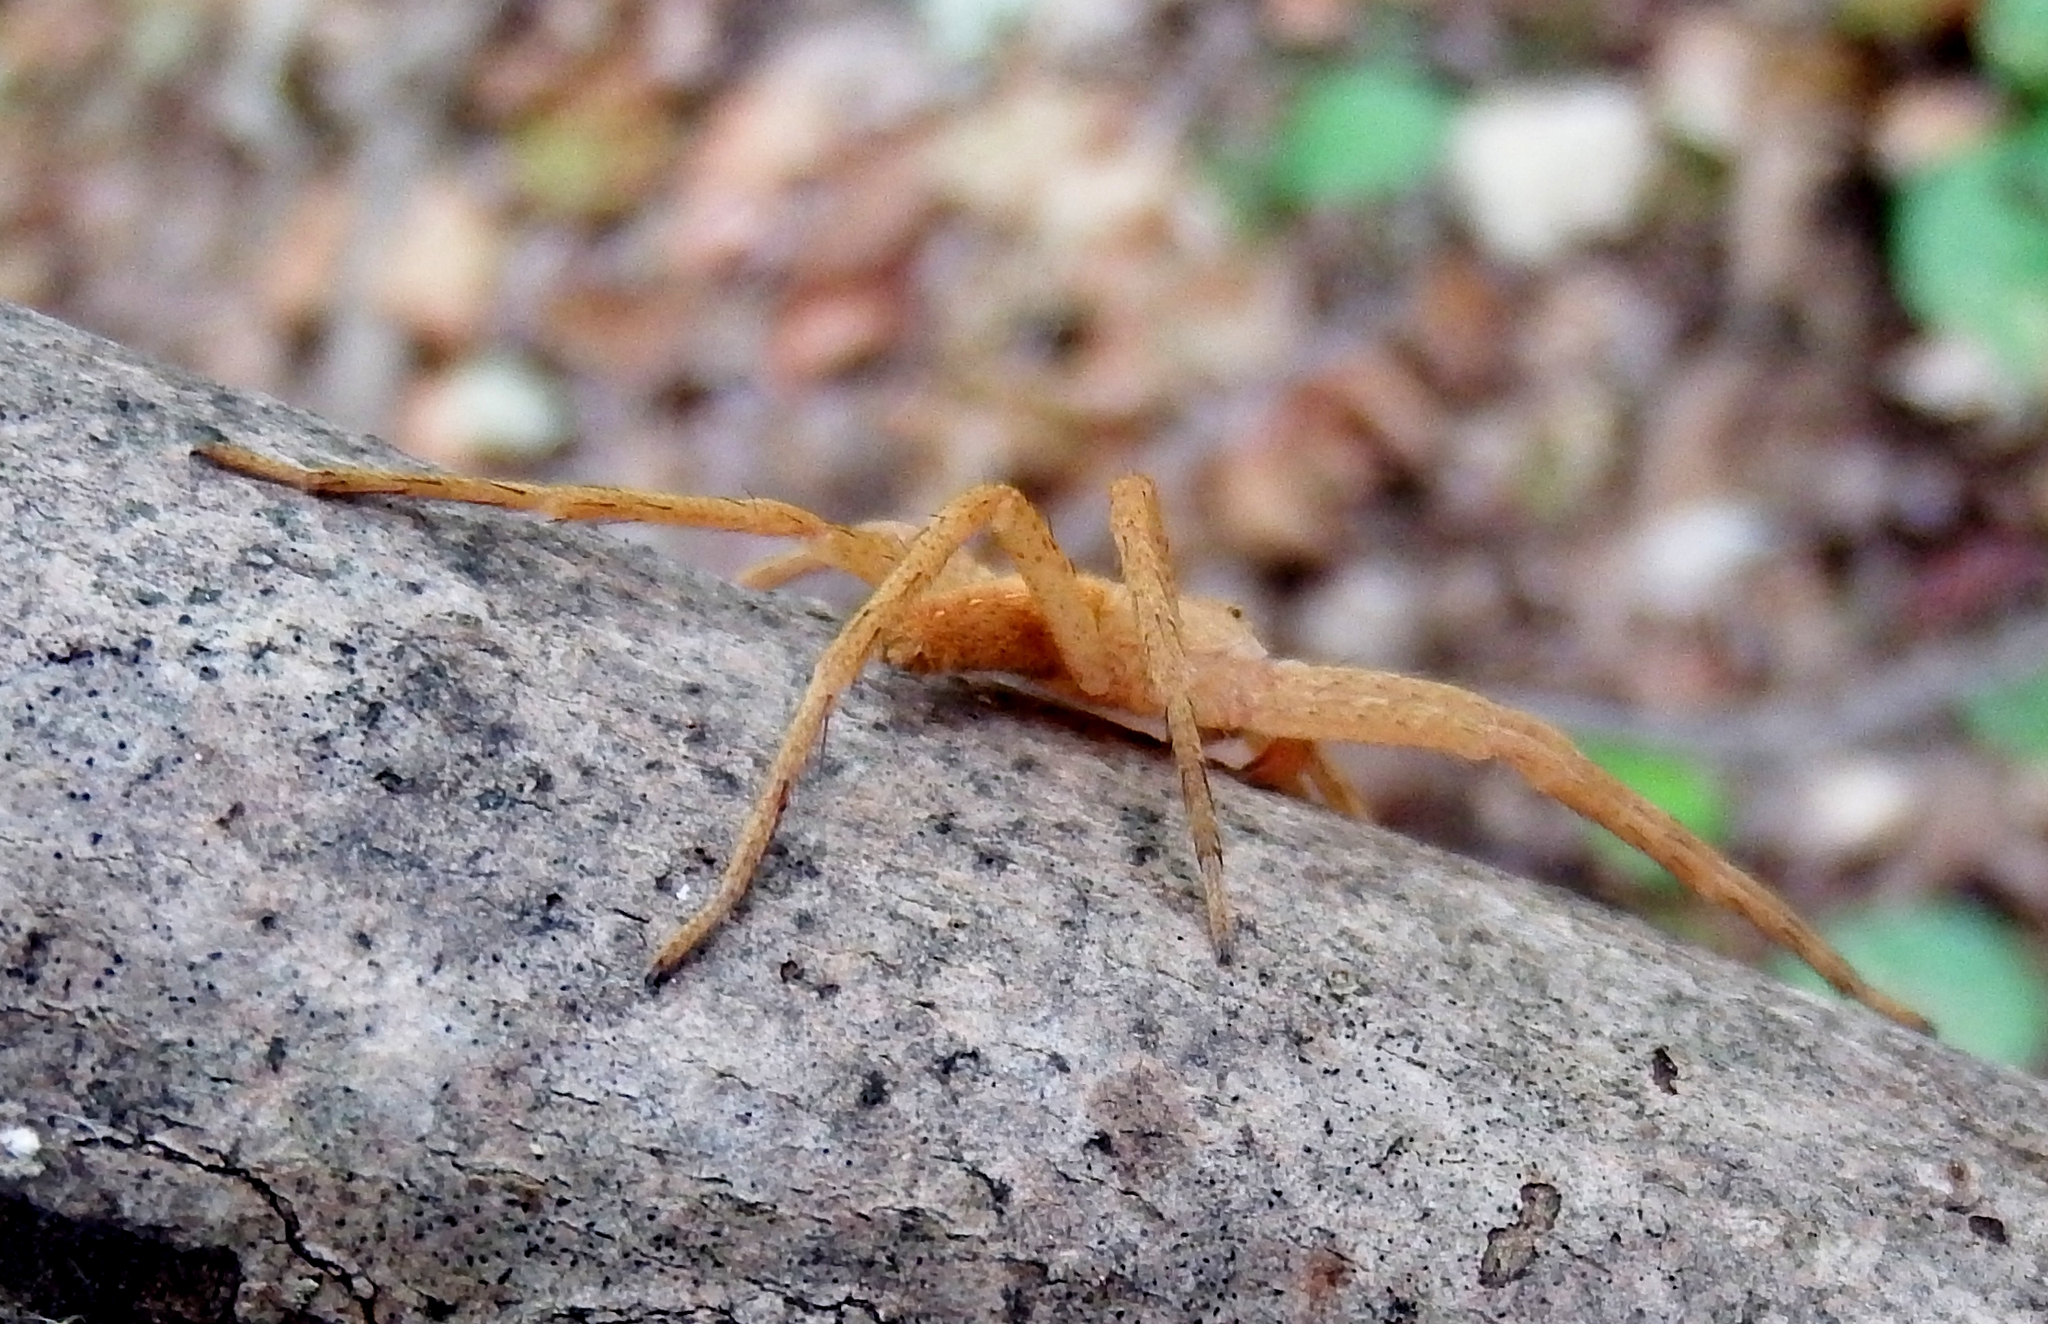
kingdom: Animalia
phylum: Arthropoda
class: Arachnida
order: Araneae
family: Pisauridae
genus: Pisaurina
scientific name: Pisaurina mira
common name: American nursery web spider
